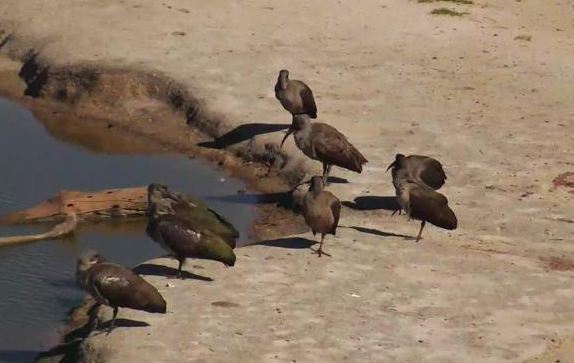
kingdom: Animalia
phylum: Chordata
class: Aves
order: Pelecaniformes
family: Threskiornithidae
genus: Bostrychia
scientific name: Bostrychia hagedash
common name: Hadada ibis
